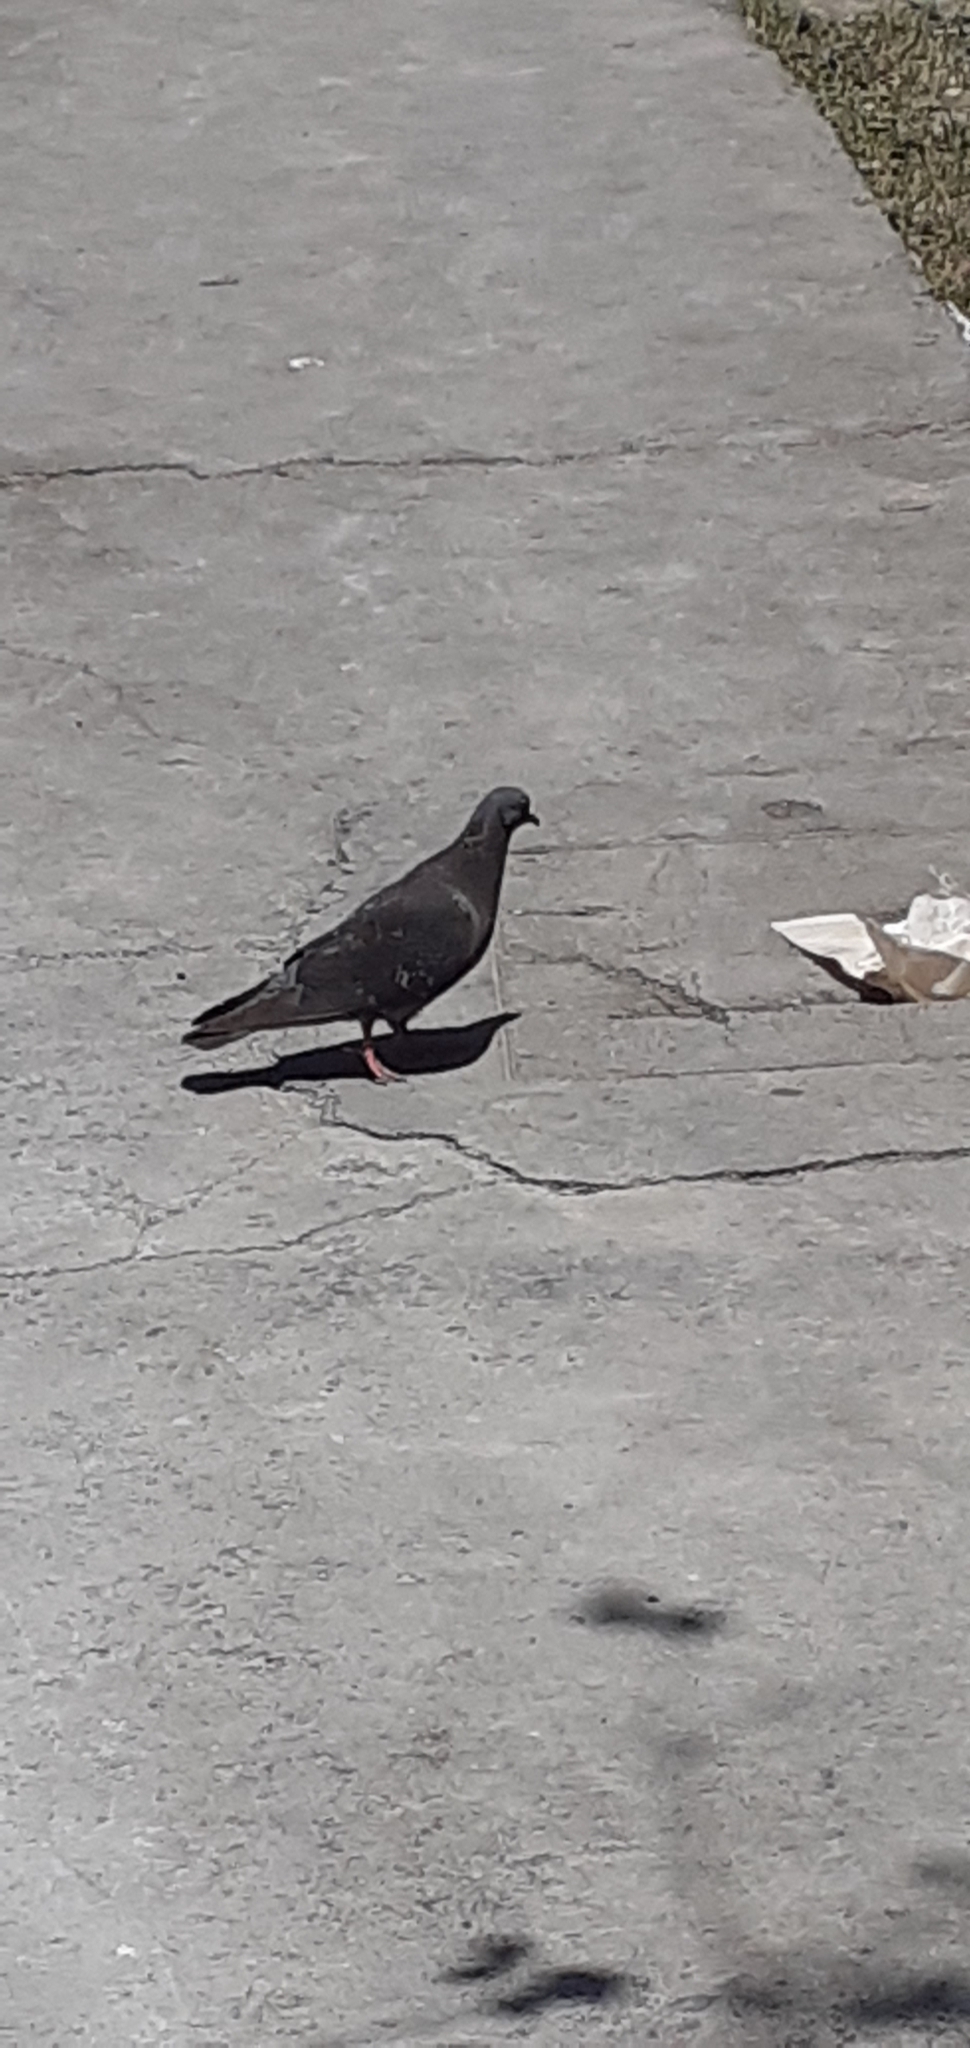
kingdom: Animalia
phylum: Chordata
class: Aves
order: Columbiformes
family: Columbidae
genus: Columba
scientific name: Columba livia
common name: Rock pigeon
